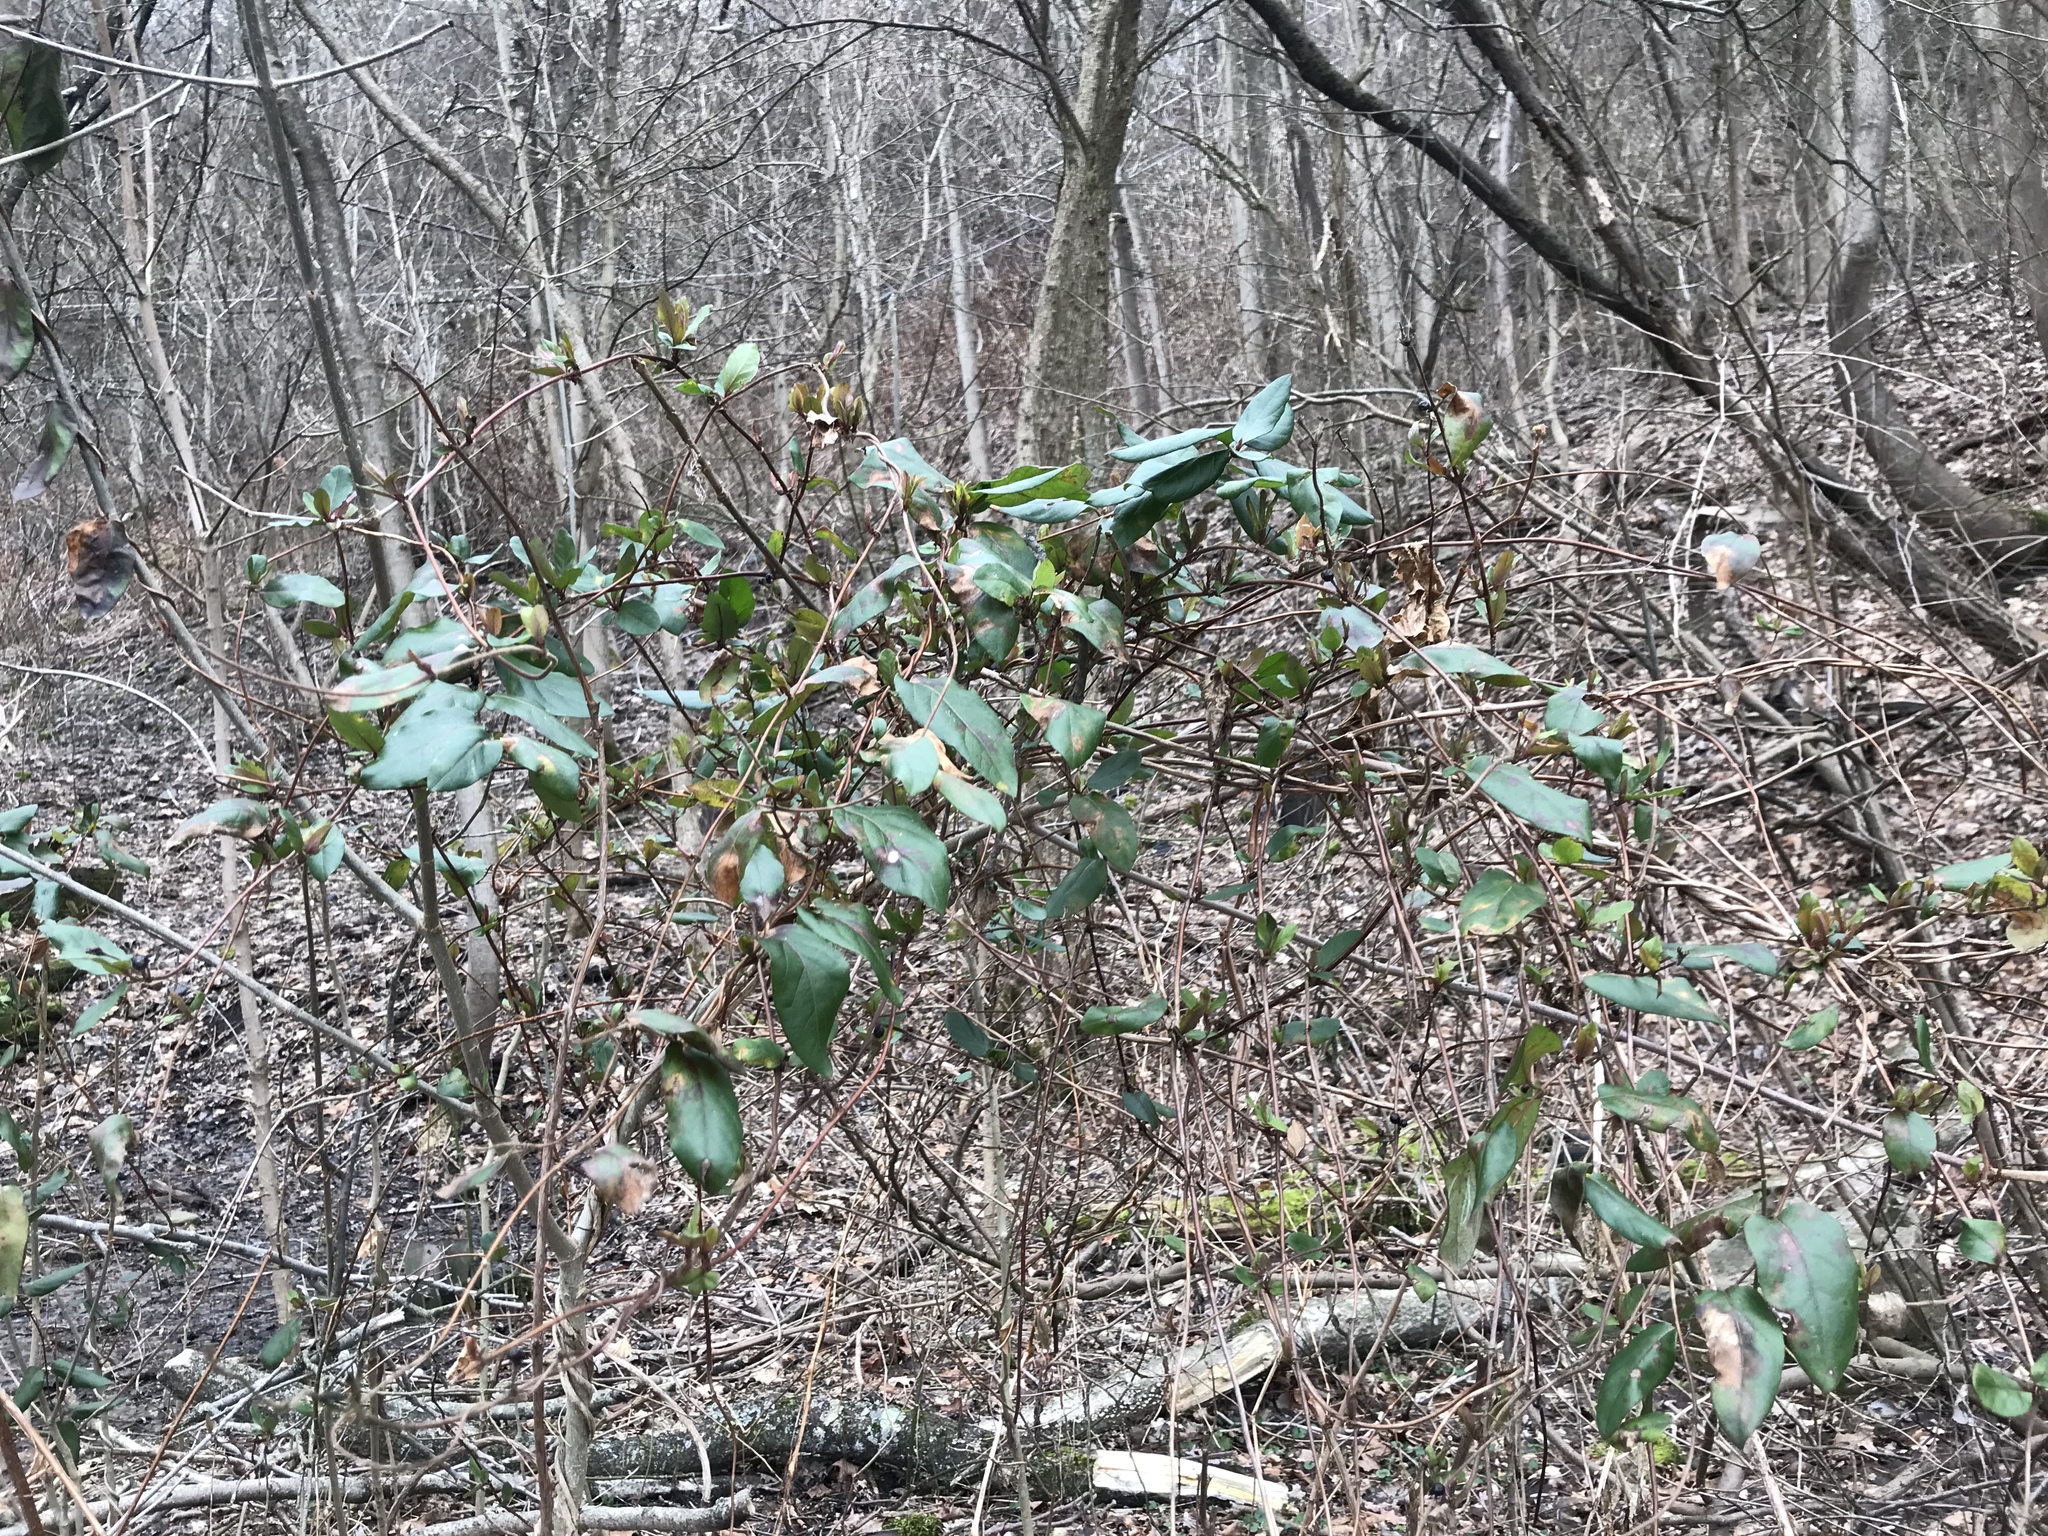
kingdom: Plantae
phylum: Tracheophyta
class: Magnoliopsida
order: Dipsacales
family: Caprifoliaceae
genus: Lonicera
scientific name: Lonicera japonica
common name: Japanese honeysuckle
